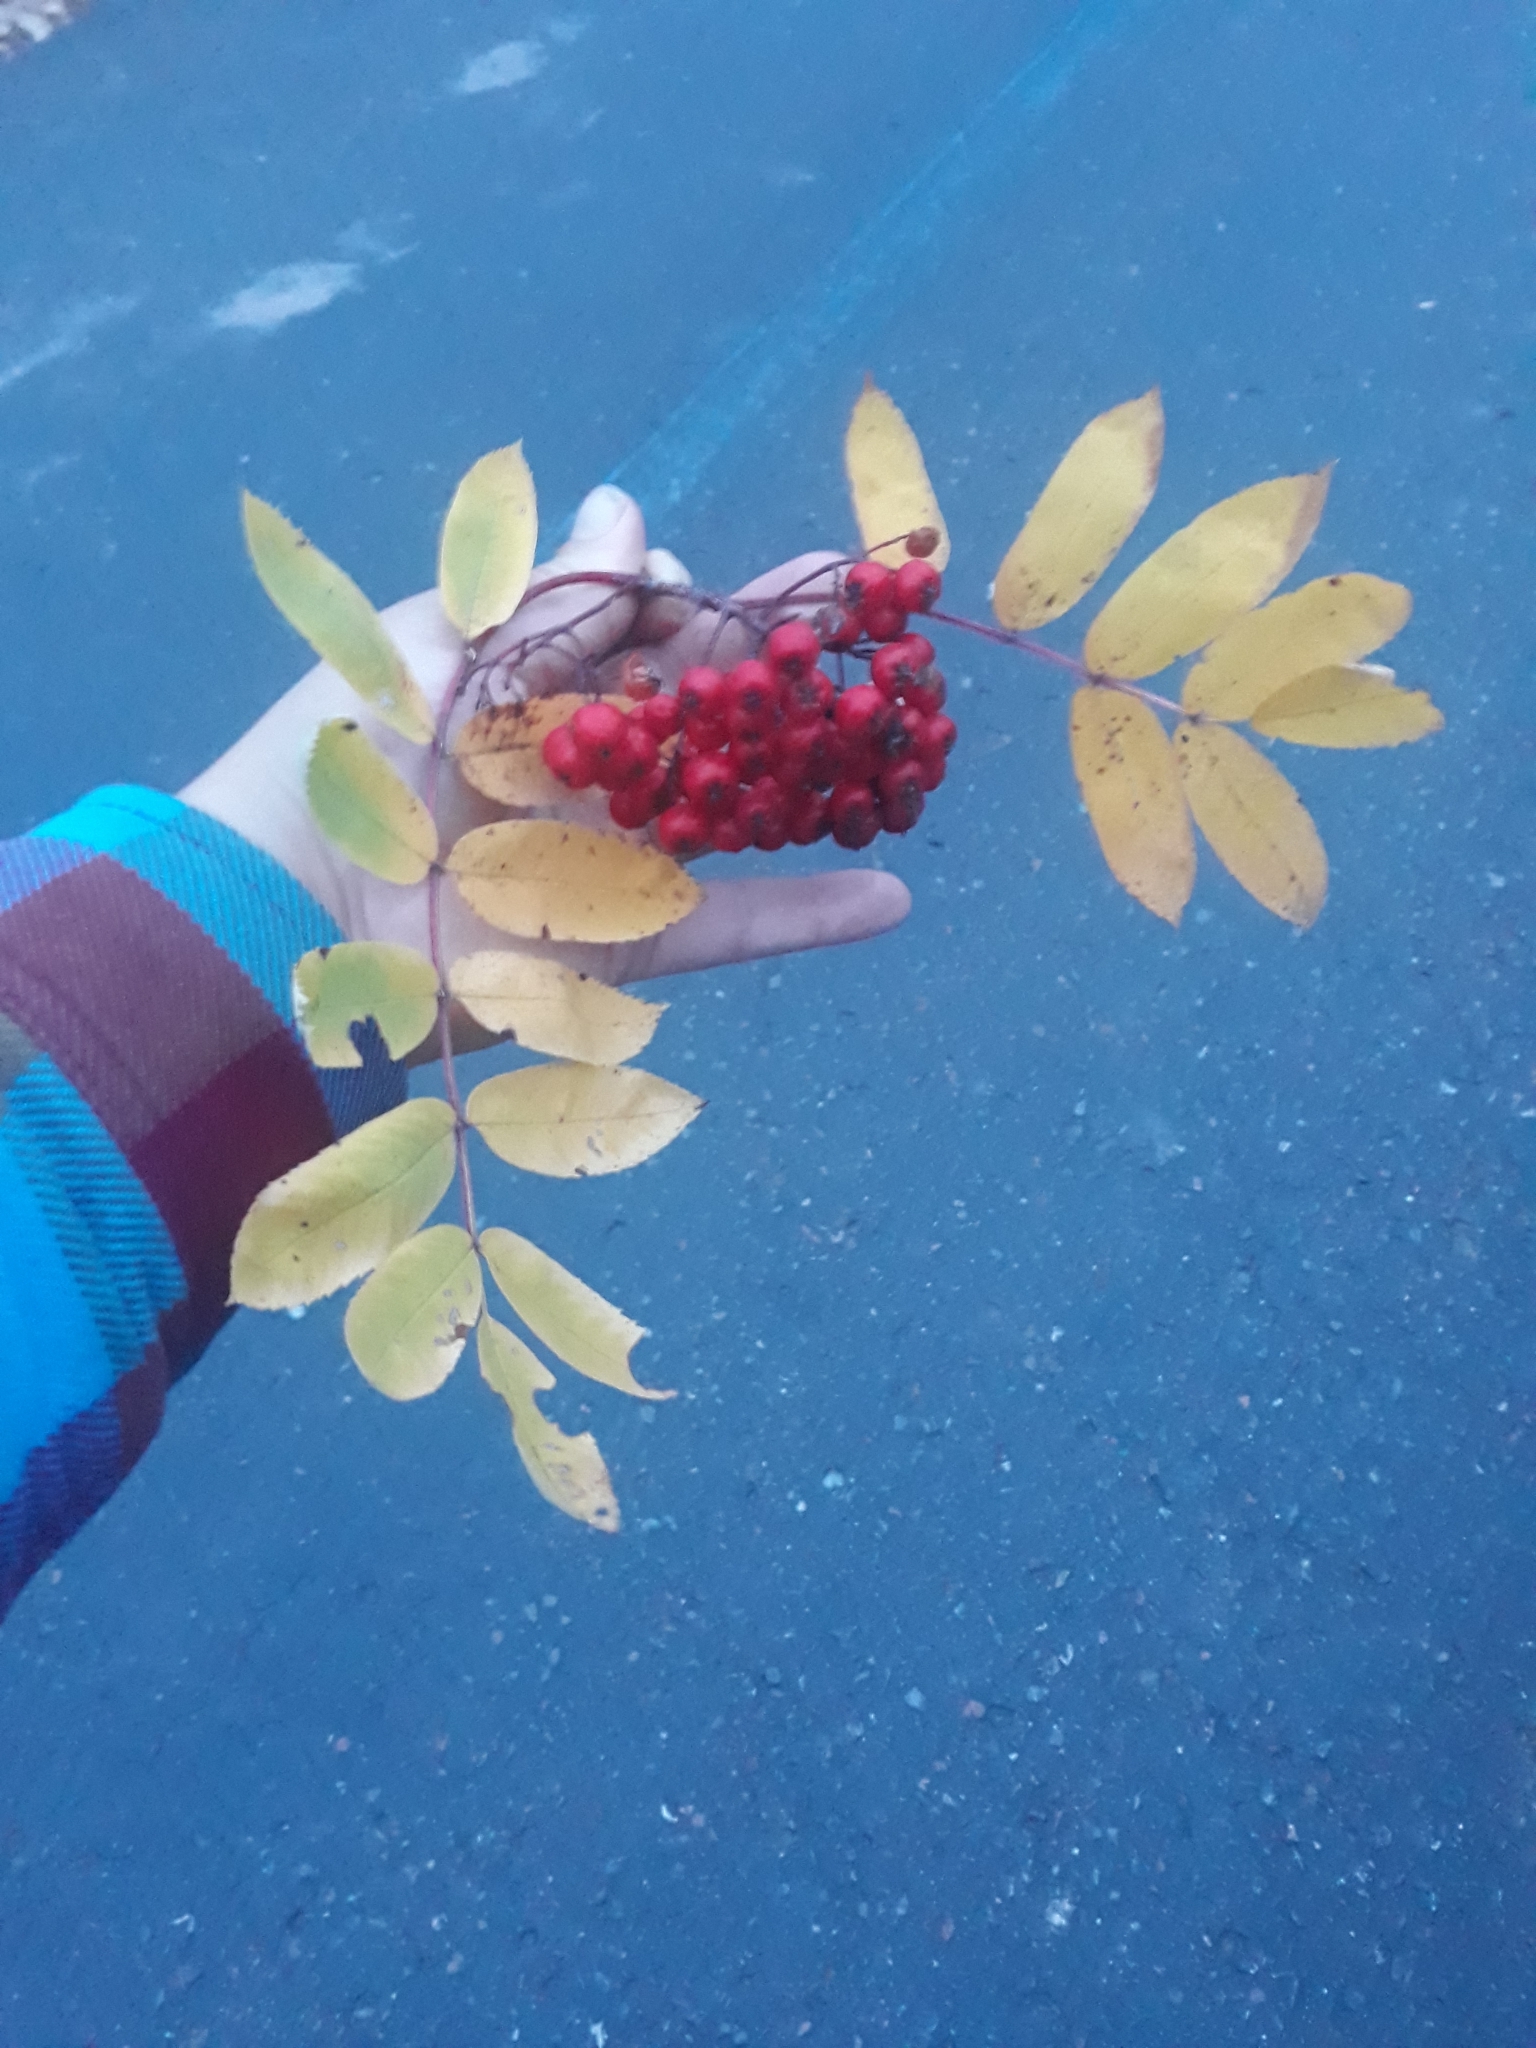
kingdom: Plantae
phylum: Tracheophyta
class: Magnoliopsida
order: Rosales
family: Rosaceae
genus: Sorbus
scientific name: Sorbus aucuparia
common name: Rowan
